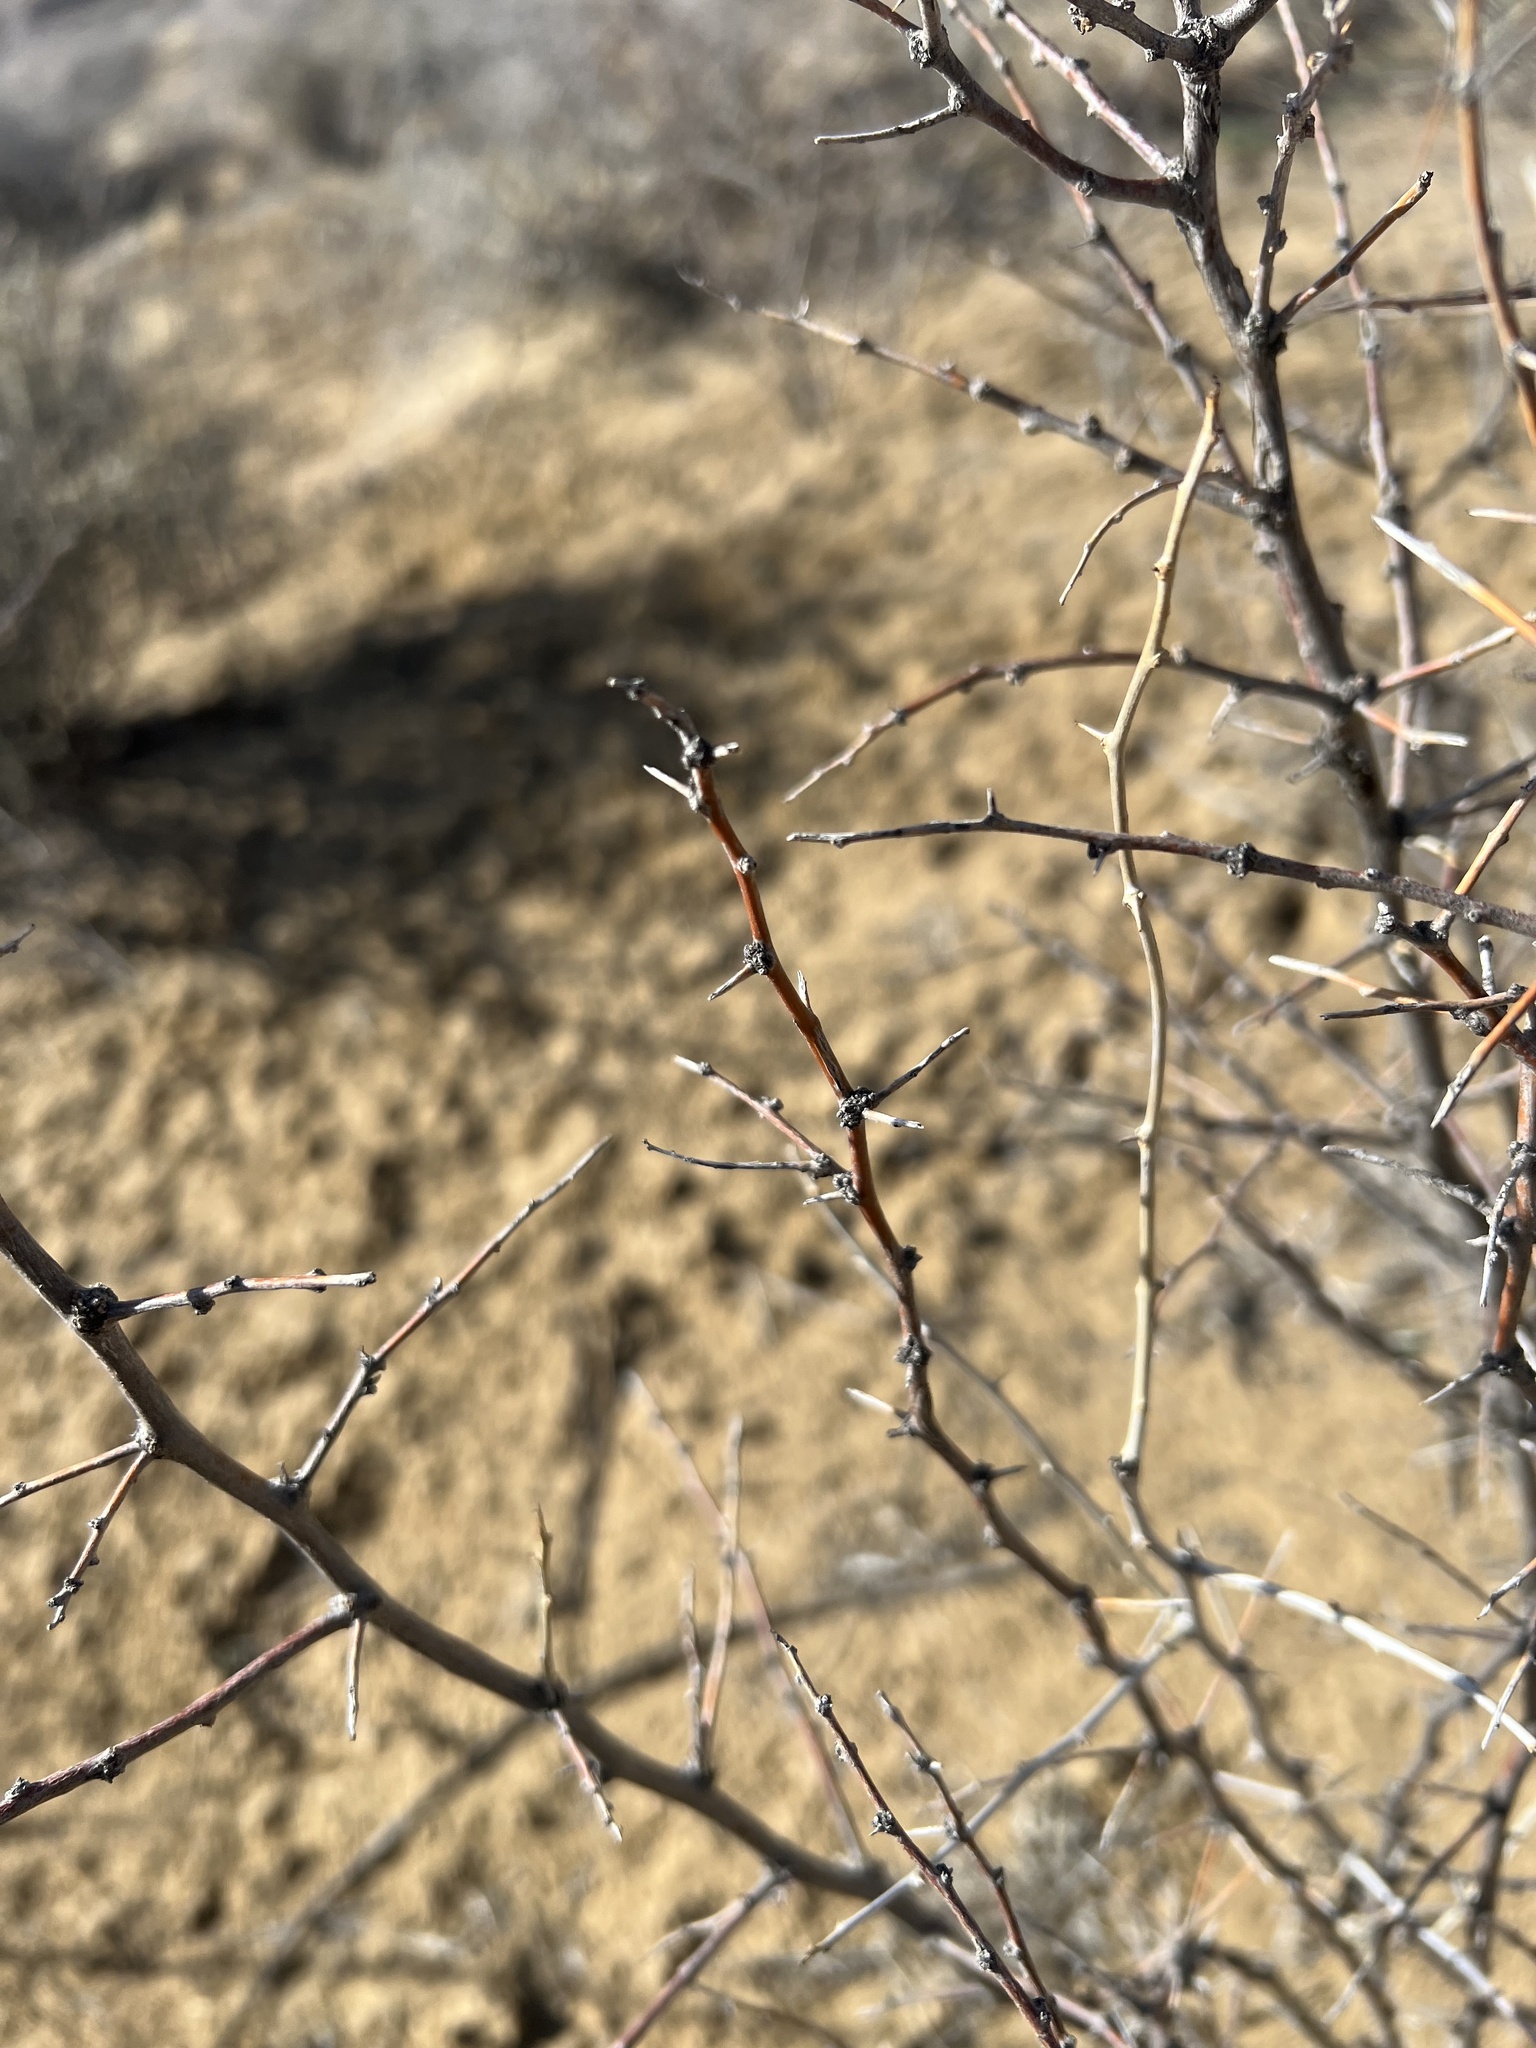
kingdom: Plantae
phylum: Tracheophyta
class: Magnoliopsida
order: Solanales
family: Solanaceae
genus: Lycium
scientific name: Lycium pallidum
